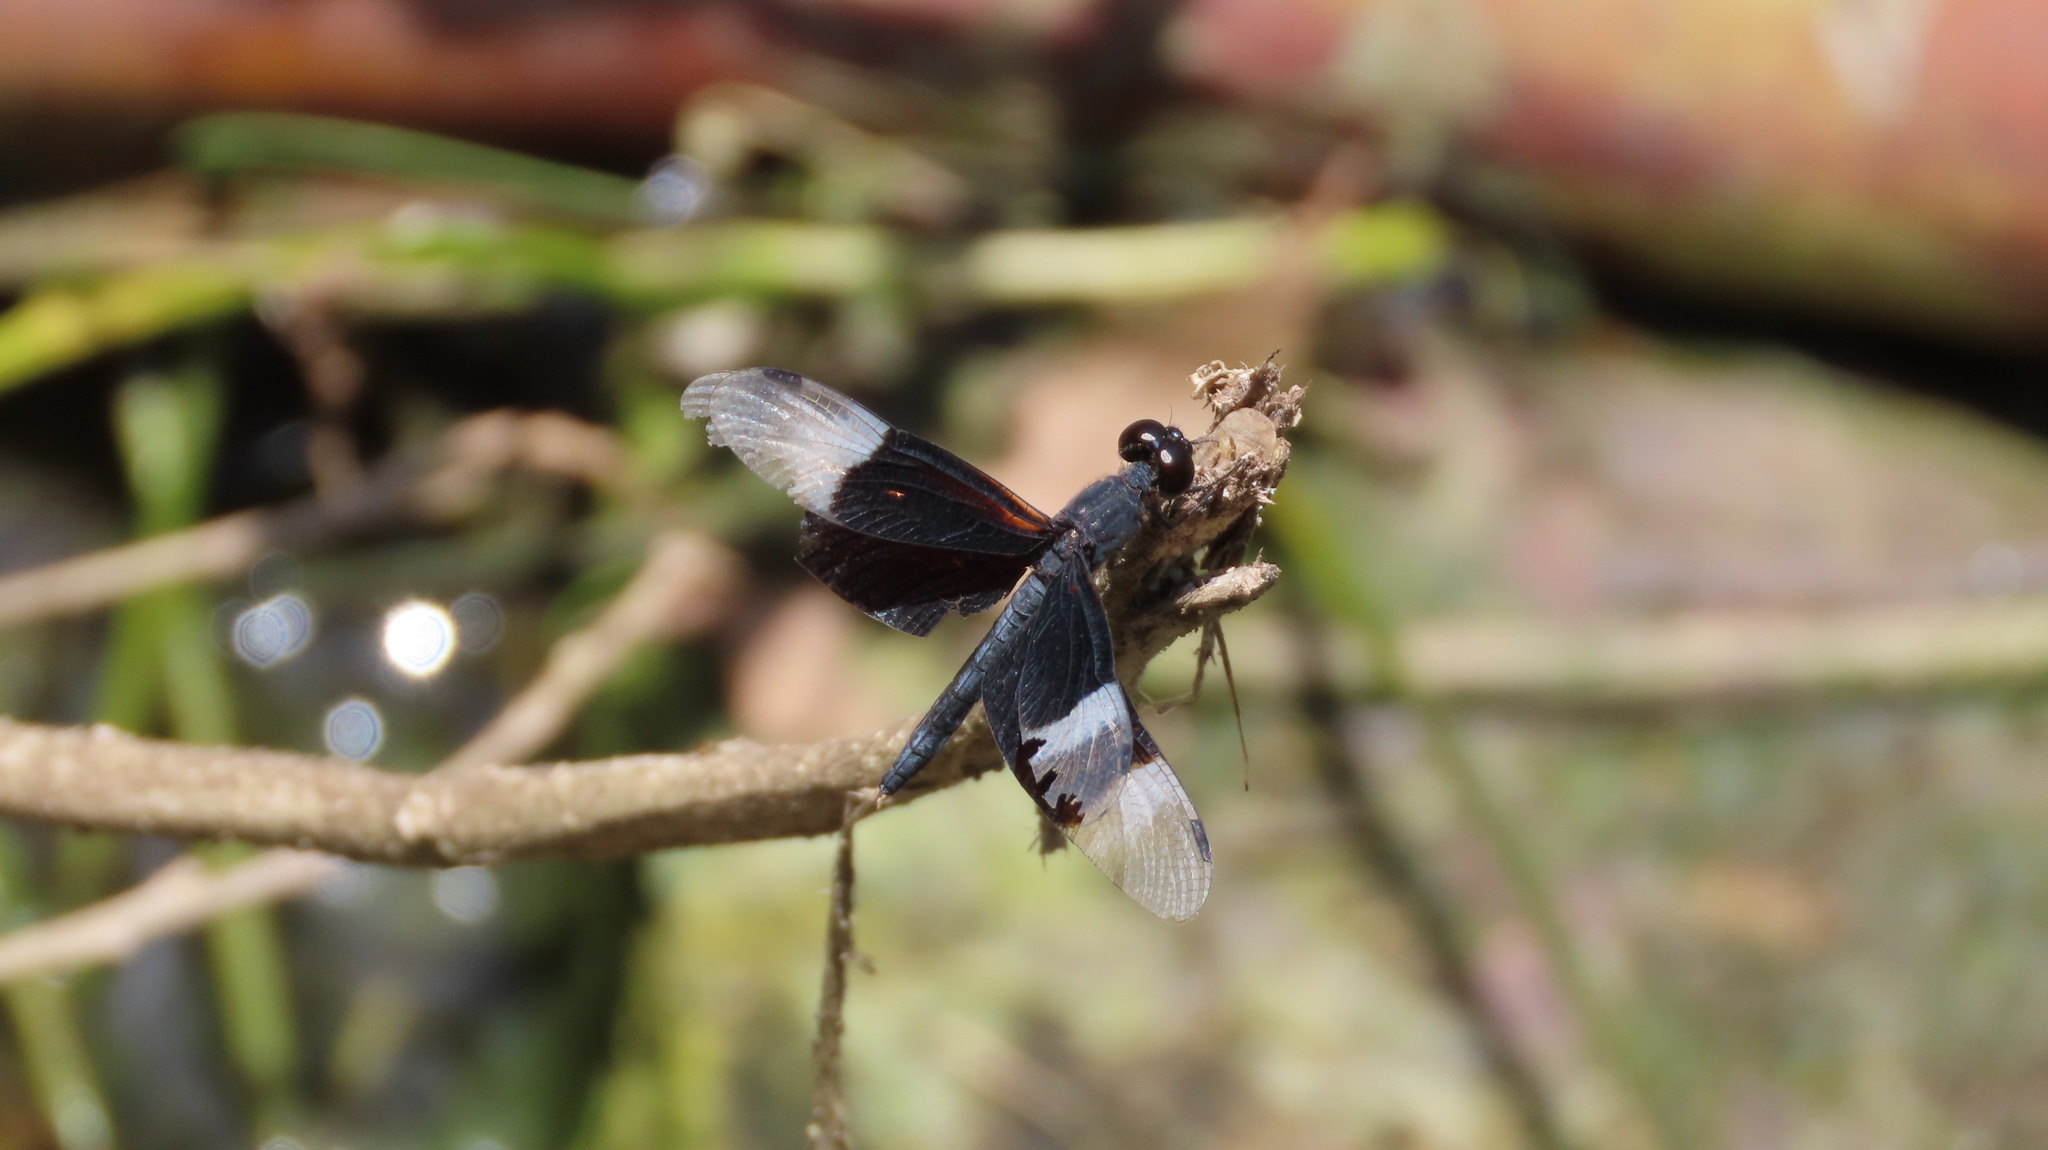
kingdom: Animalia
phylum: Arthropoda
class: Insecta
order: Odonata
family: Libellulidae
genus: Neurothemis
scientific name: Neurothemis tullia
